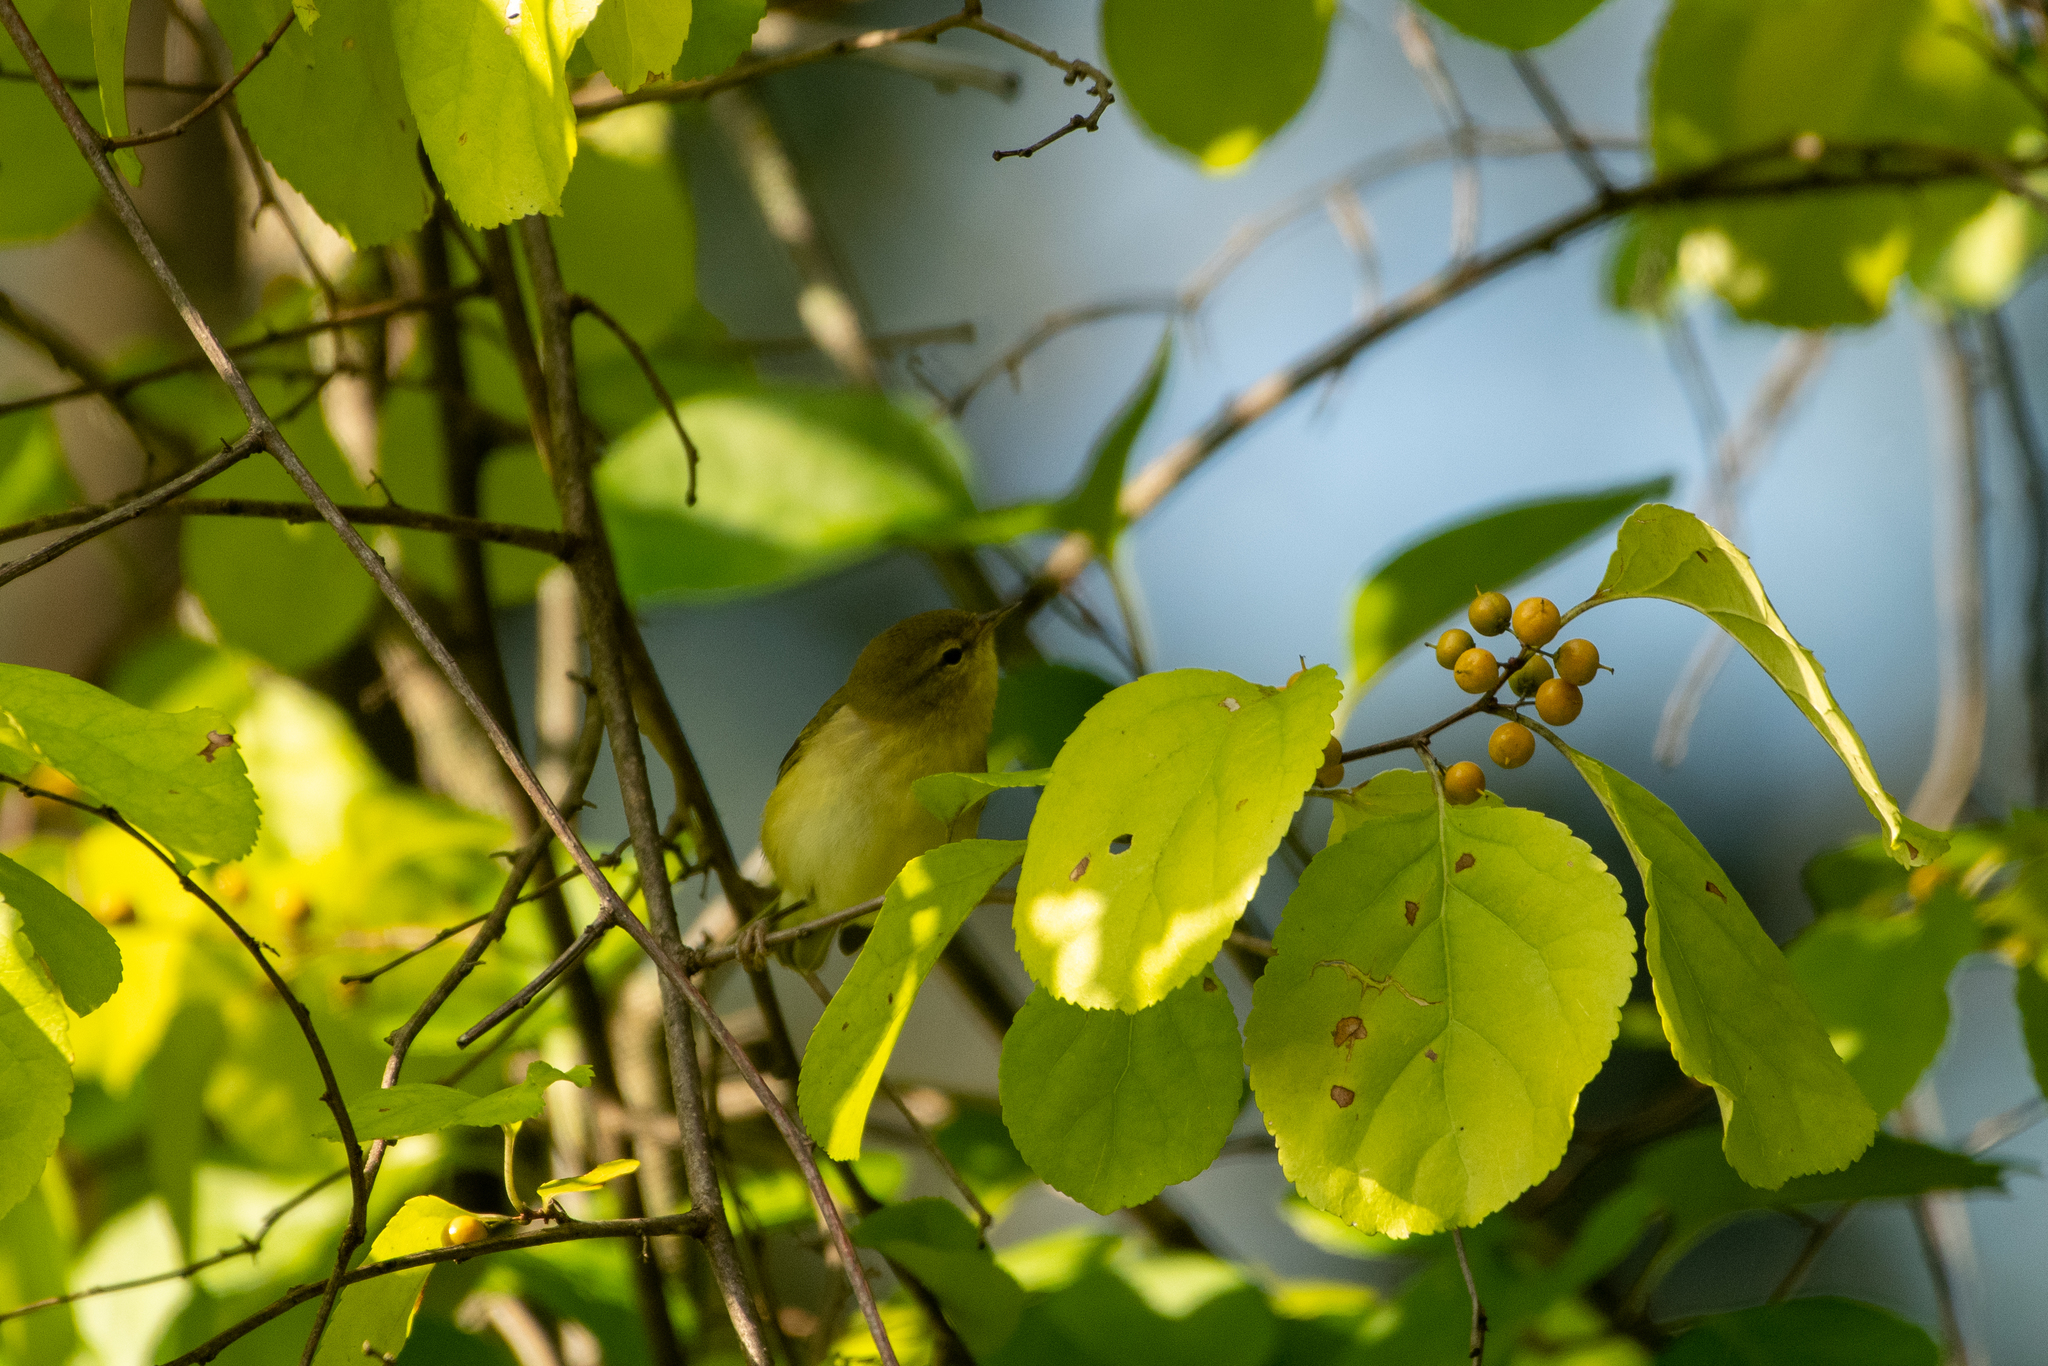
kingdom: Animalia
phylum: Chordata
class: Aves
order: Passeriformes
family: Parulidae
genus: Leiothlypis
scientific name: Leiothlypis peregrina
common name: Tennessee warbler
